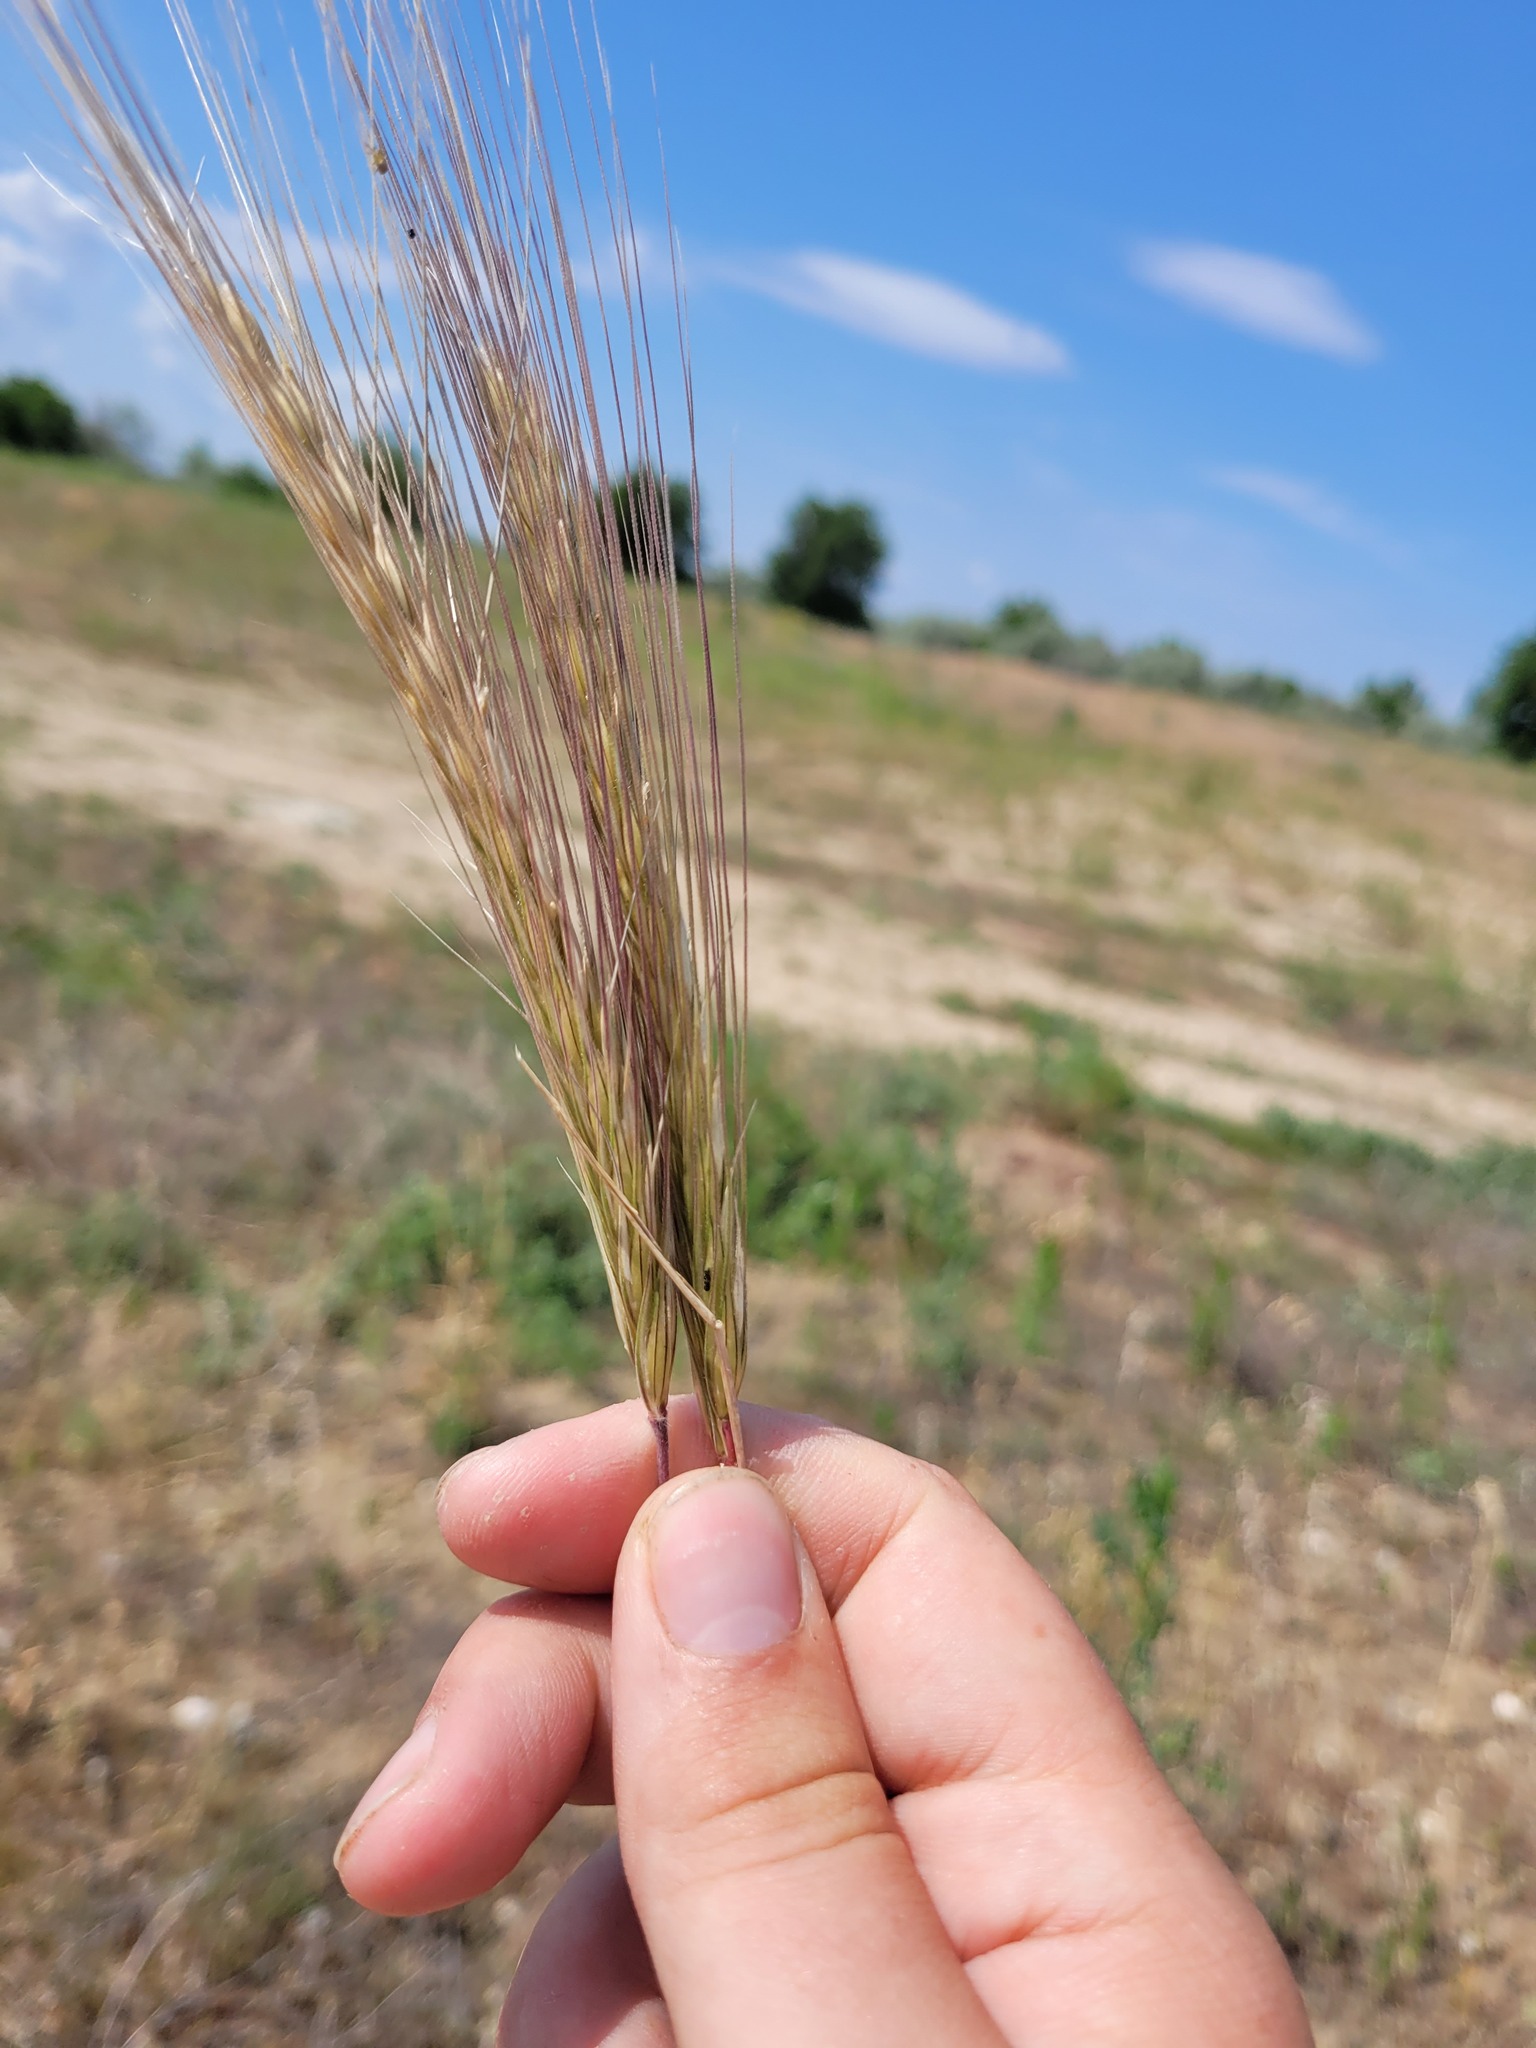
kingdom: Plantae
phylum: Tracheophyta
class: Liliopsida
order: Poales
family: Poaceae
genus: Secale
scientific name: Secale sylvestre
